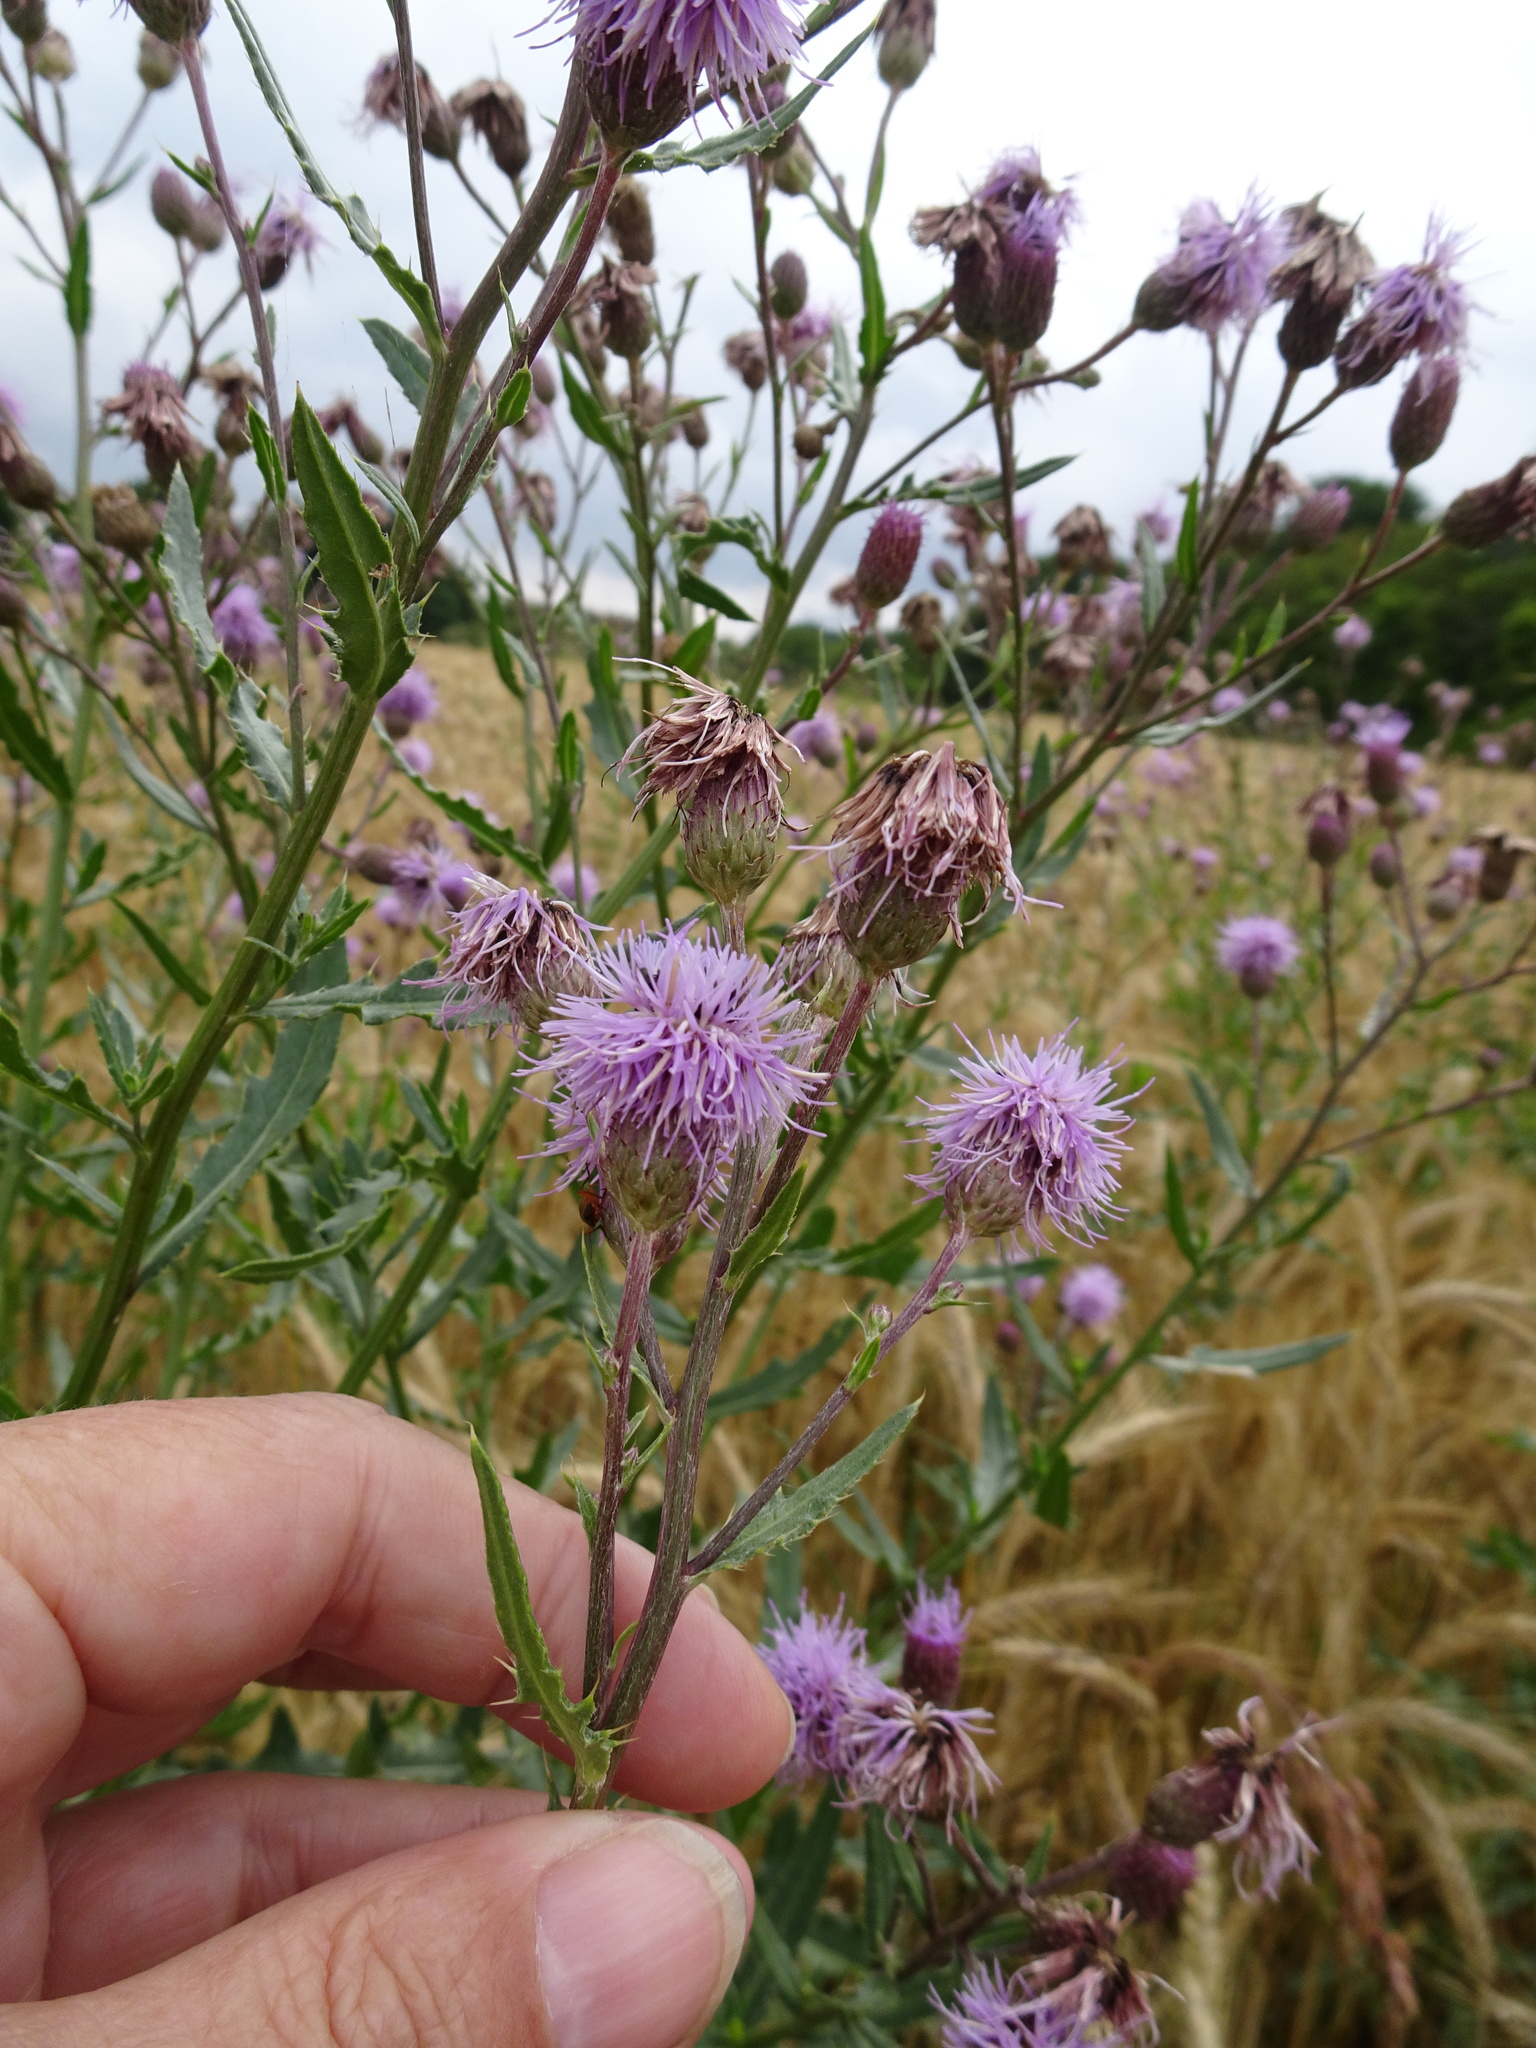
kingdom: Plantae
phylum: Tracheophyta
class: Magnoliopsida
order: Asterales
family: Asteraceae
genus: Cirsium
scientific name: Cirsium arvense
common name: Creeping thistle
